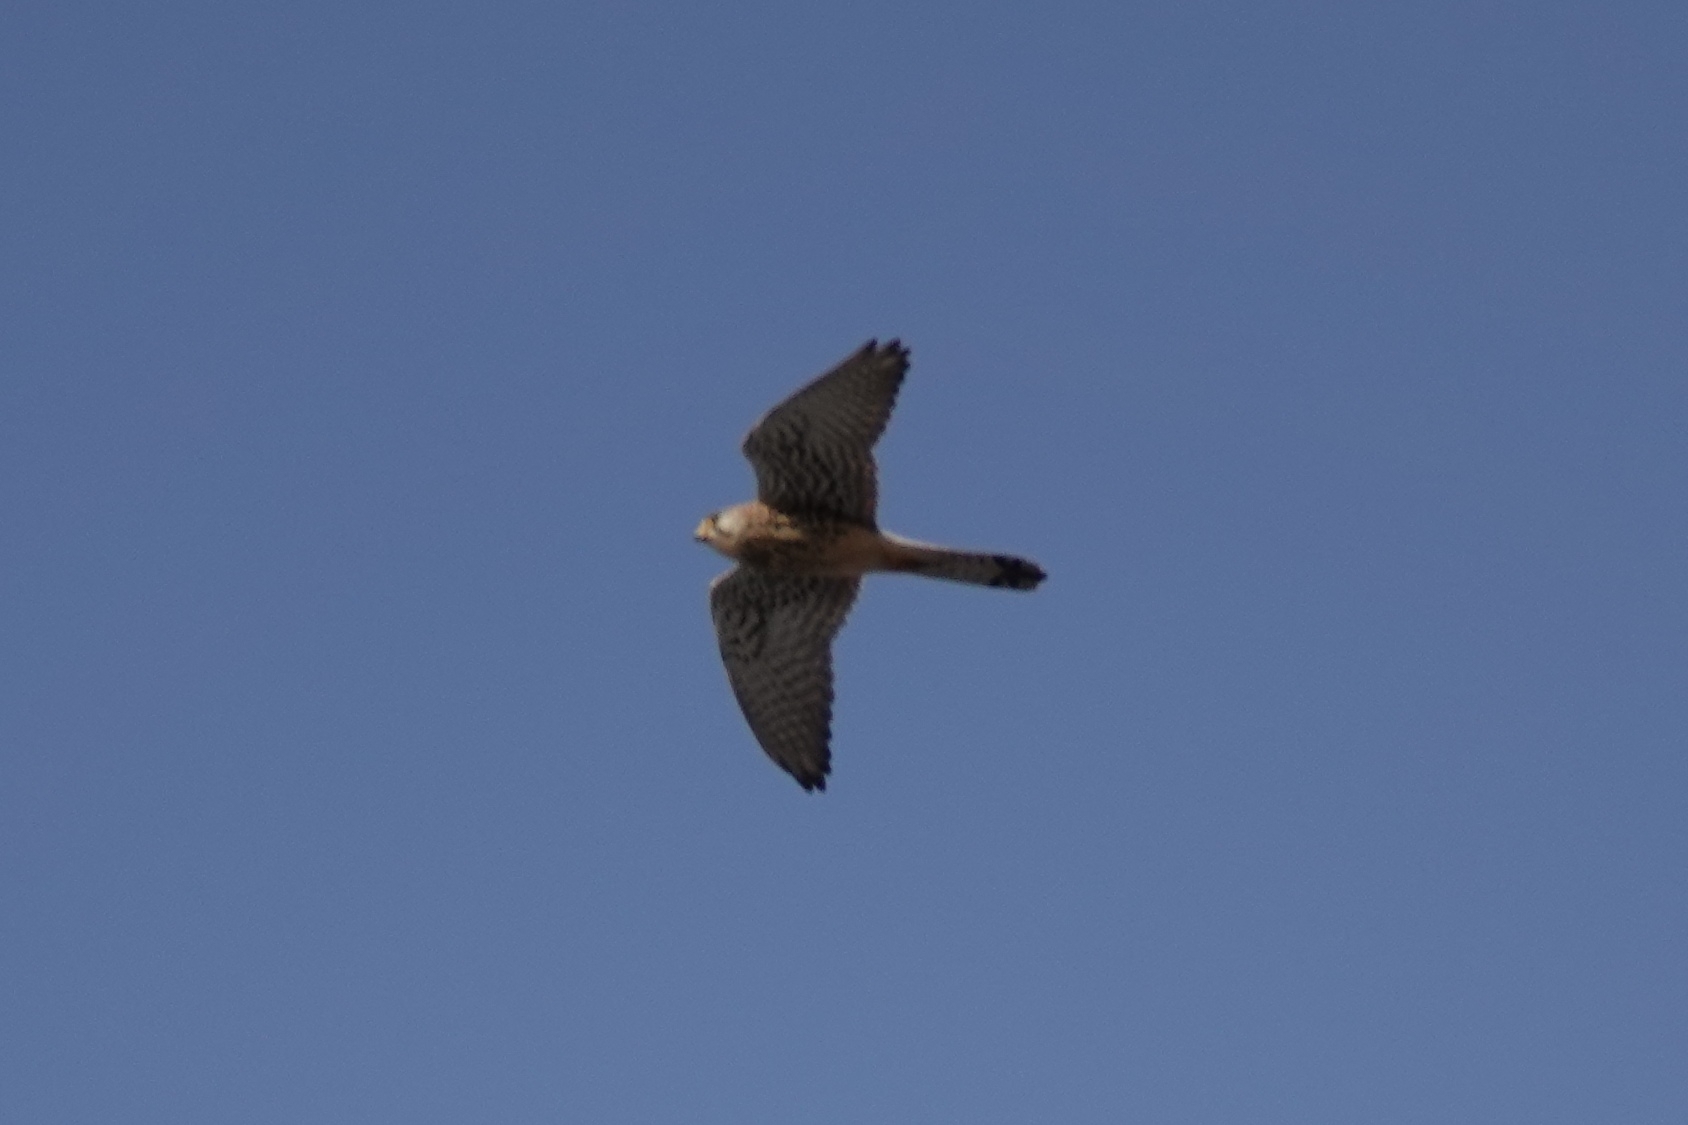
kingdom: Animalia
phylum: Chordata
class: Aves
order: Falconiformes
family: Falconidae
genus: Falco
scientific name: Falco tinnunculus
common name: Common kestrel
